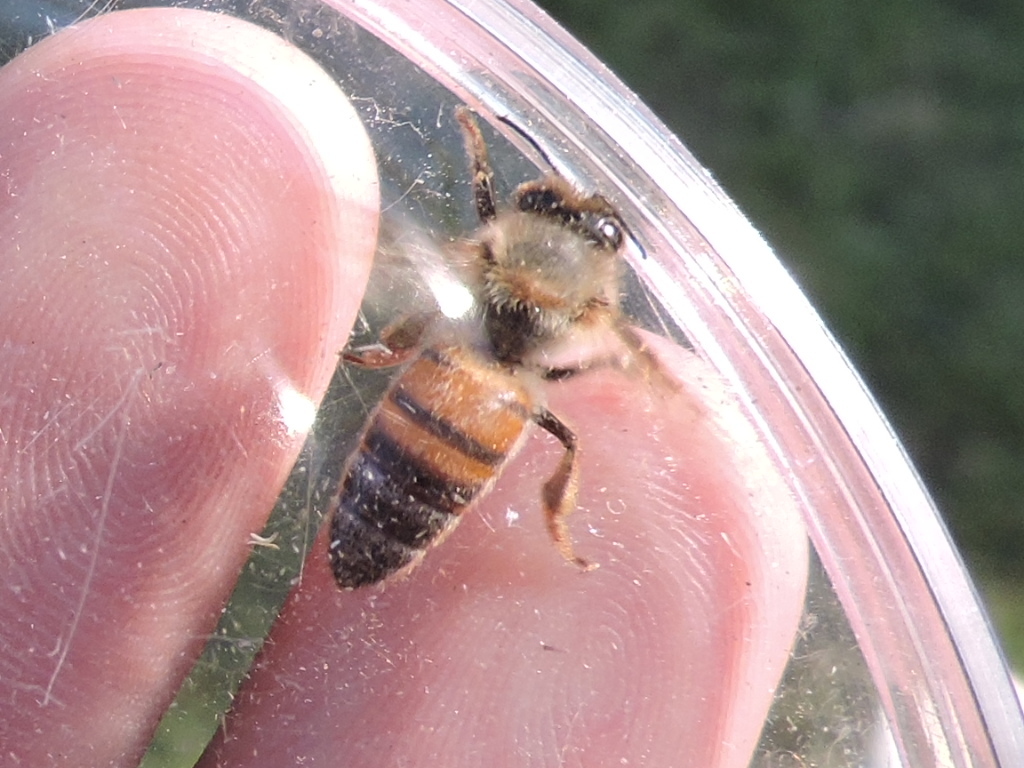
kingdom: Animalia
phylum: Arthropoda
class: Insecta
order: Hymenoptera
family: Apidae
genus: Apis
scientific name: Apis mellifera
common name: Honey bee
